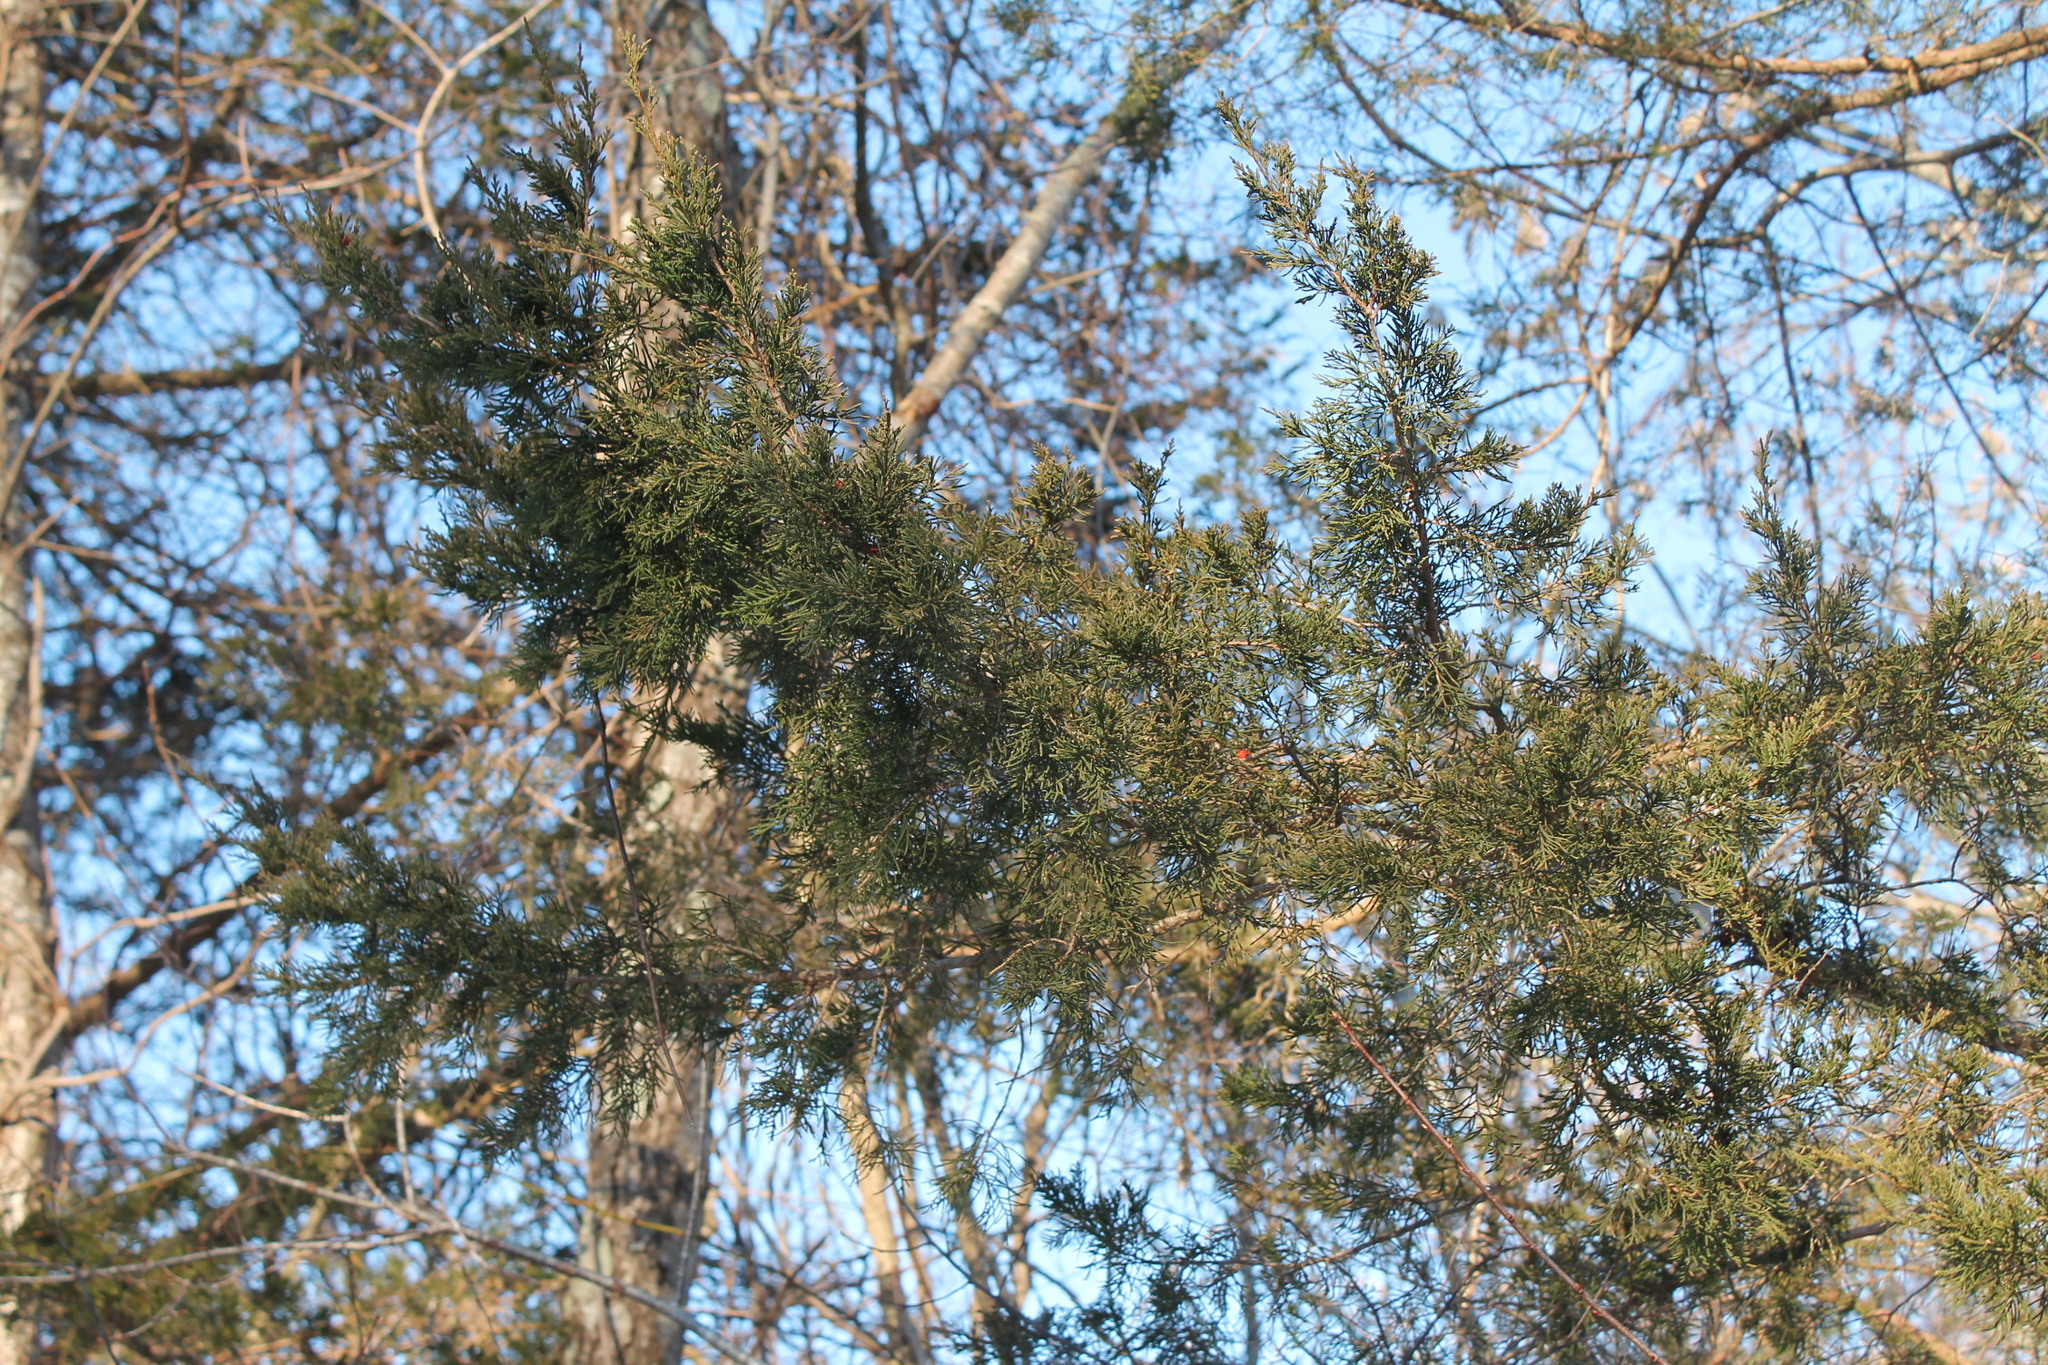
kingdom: Plantae
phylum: Tracheophyta
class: Pinopsida
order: Pinales
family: Cupressaceae
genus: Juniperus
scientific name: Juniperus virginiana
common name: Red juniper
